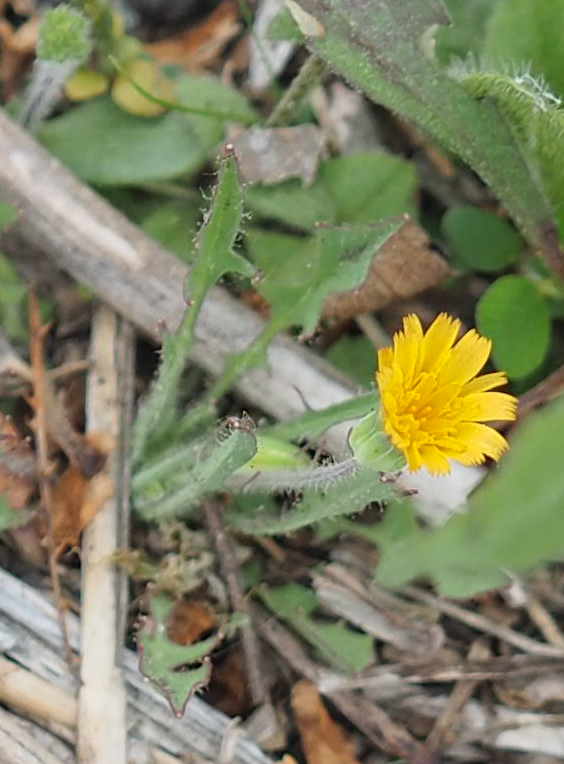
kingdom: Plantae
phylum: Tracheophyta
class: Magnoliopsida
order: Asterales
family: Asteraceae
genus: Krigia
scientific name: Krigia virginica
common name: Virginia dwarf-dandelion
